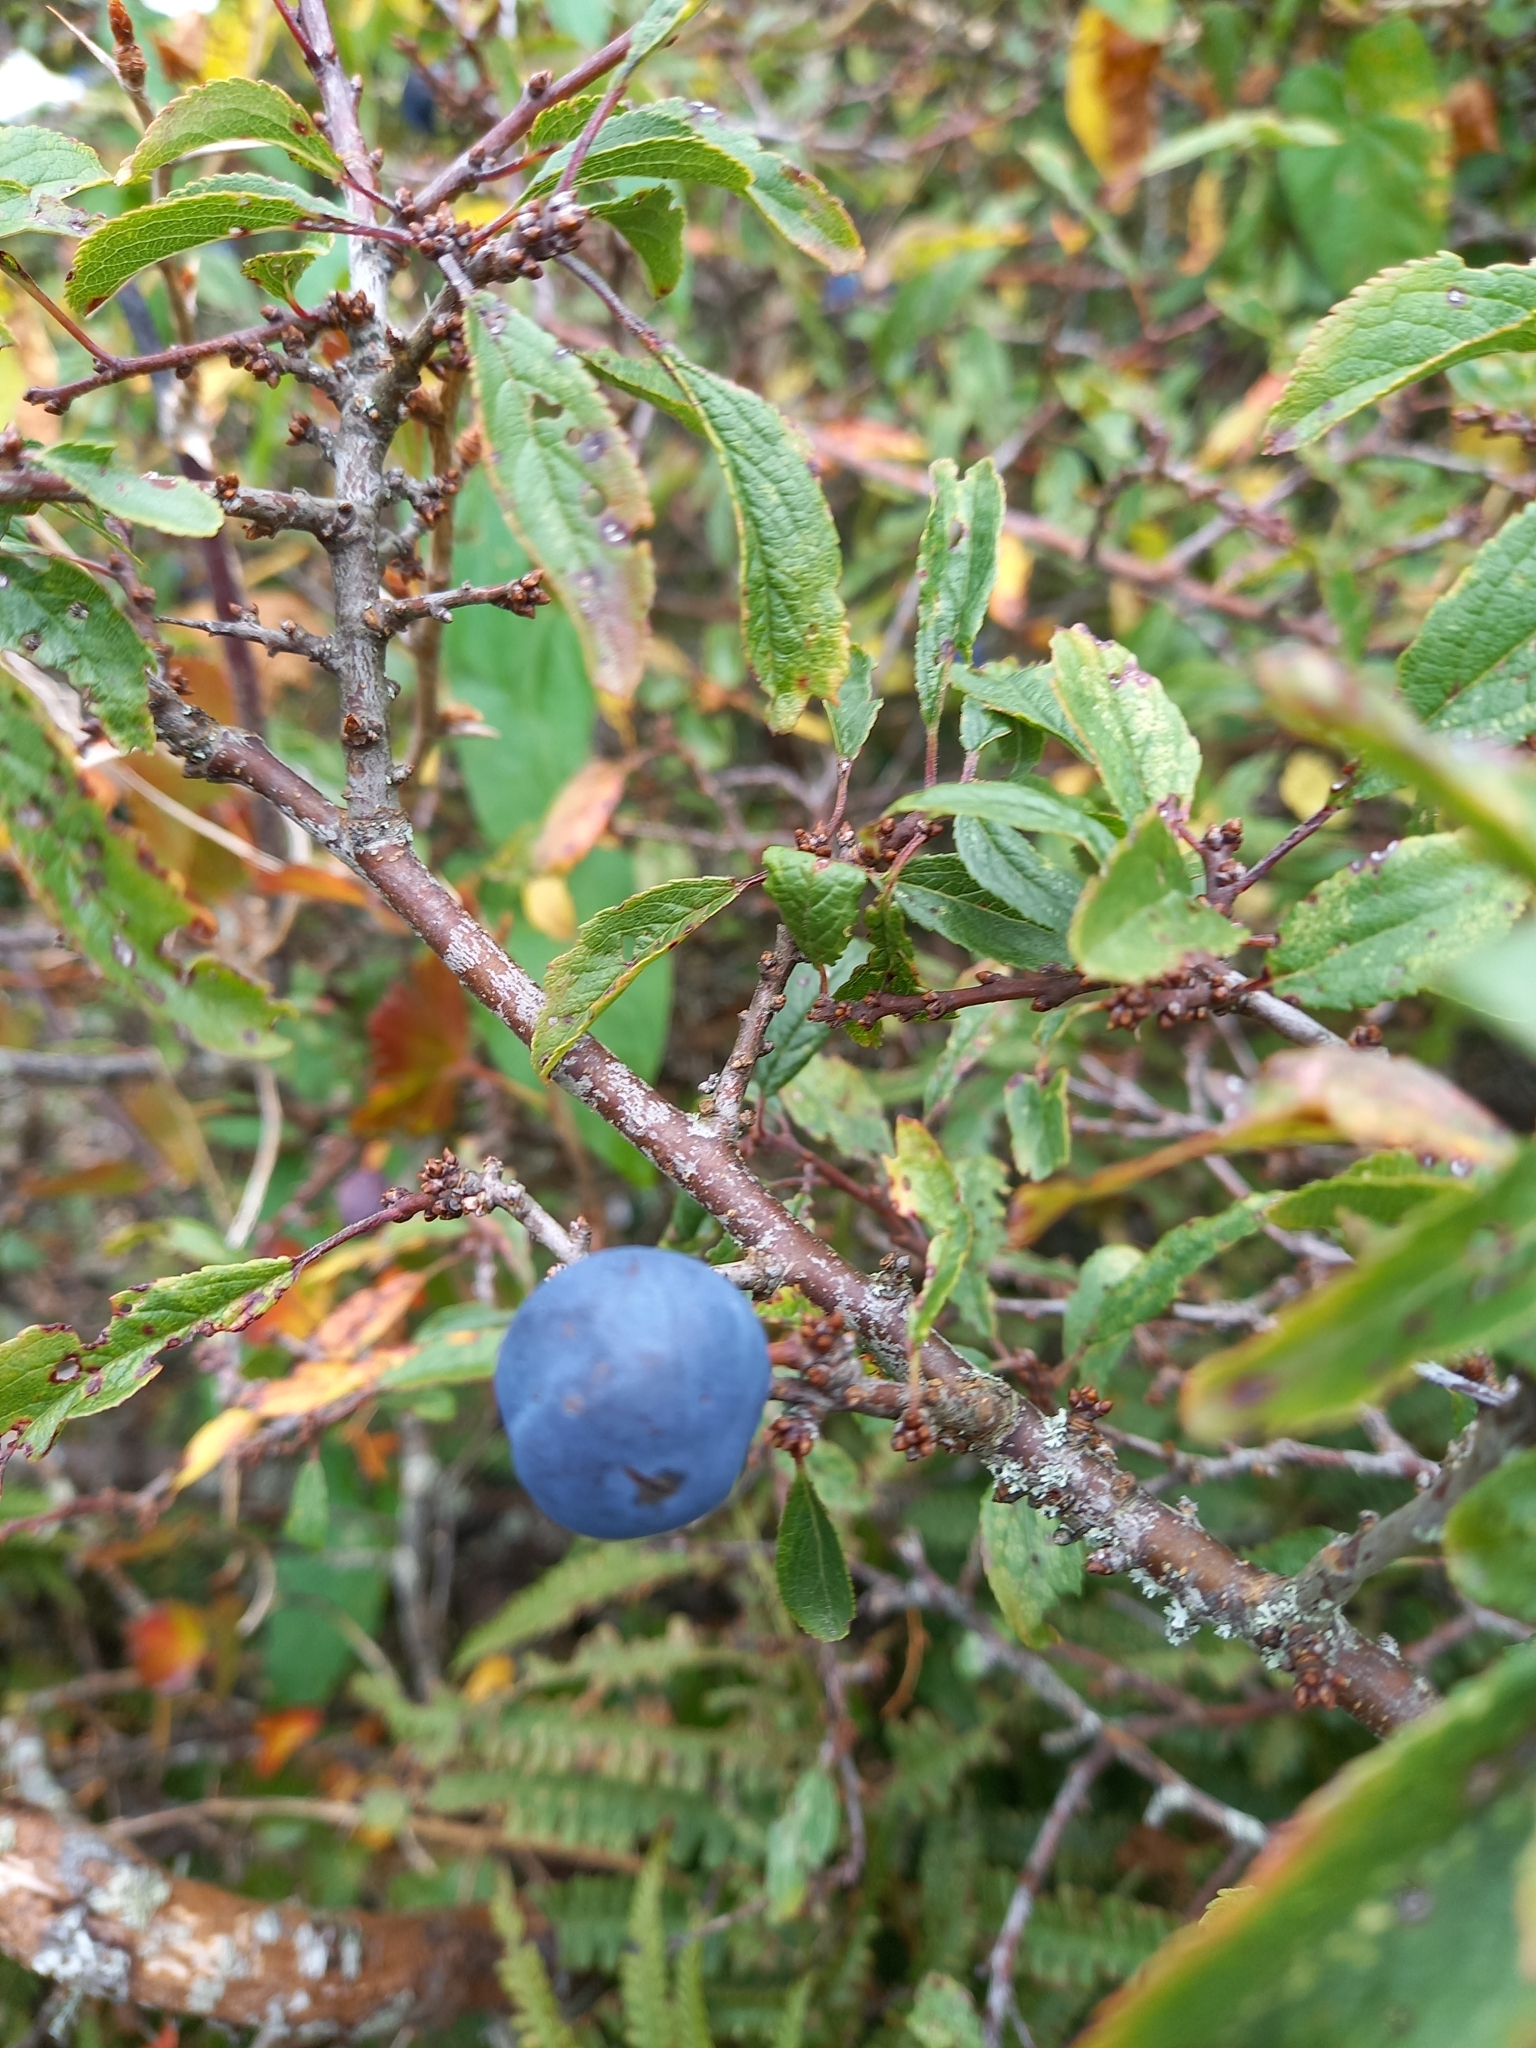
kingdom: Plantae
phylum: Tracheophyta
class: Magnoliopsida
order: Rosales
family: Rosaceae
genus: Prunus
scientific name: Prunus spinosa
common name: Blackthorn
